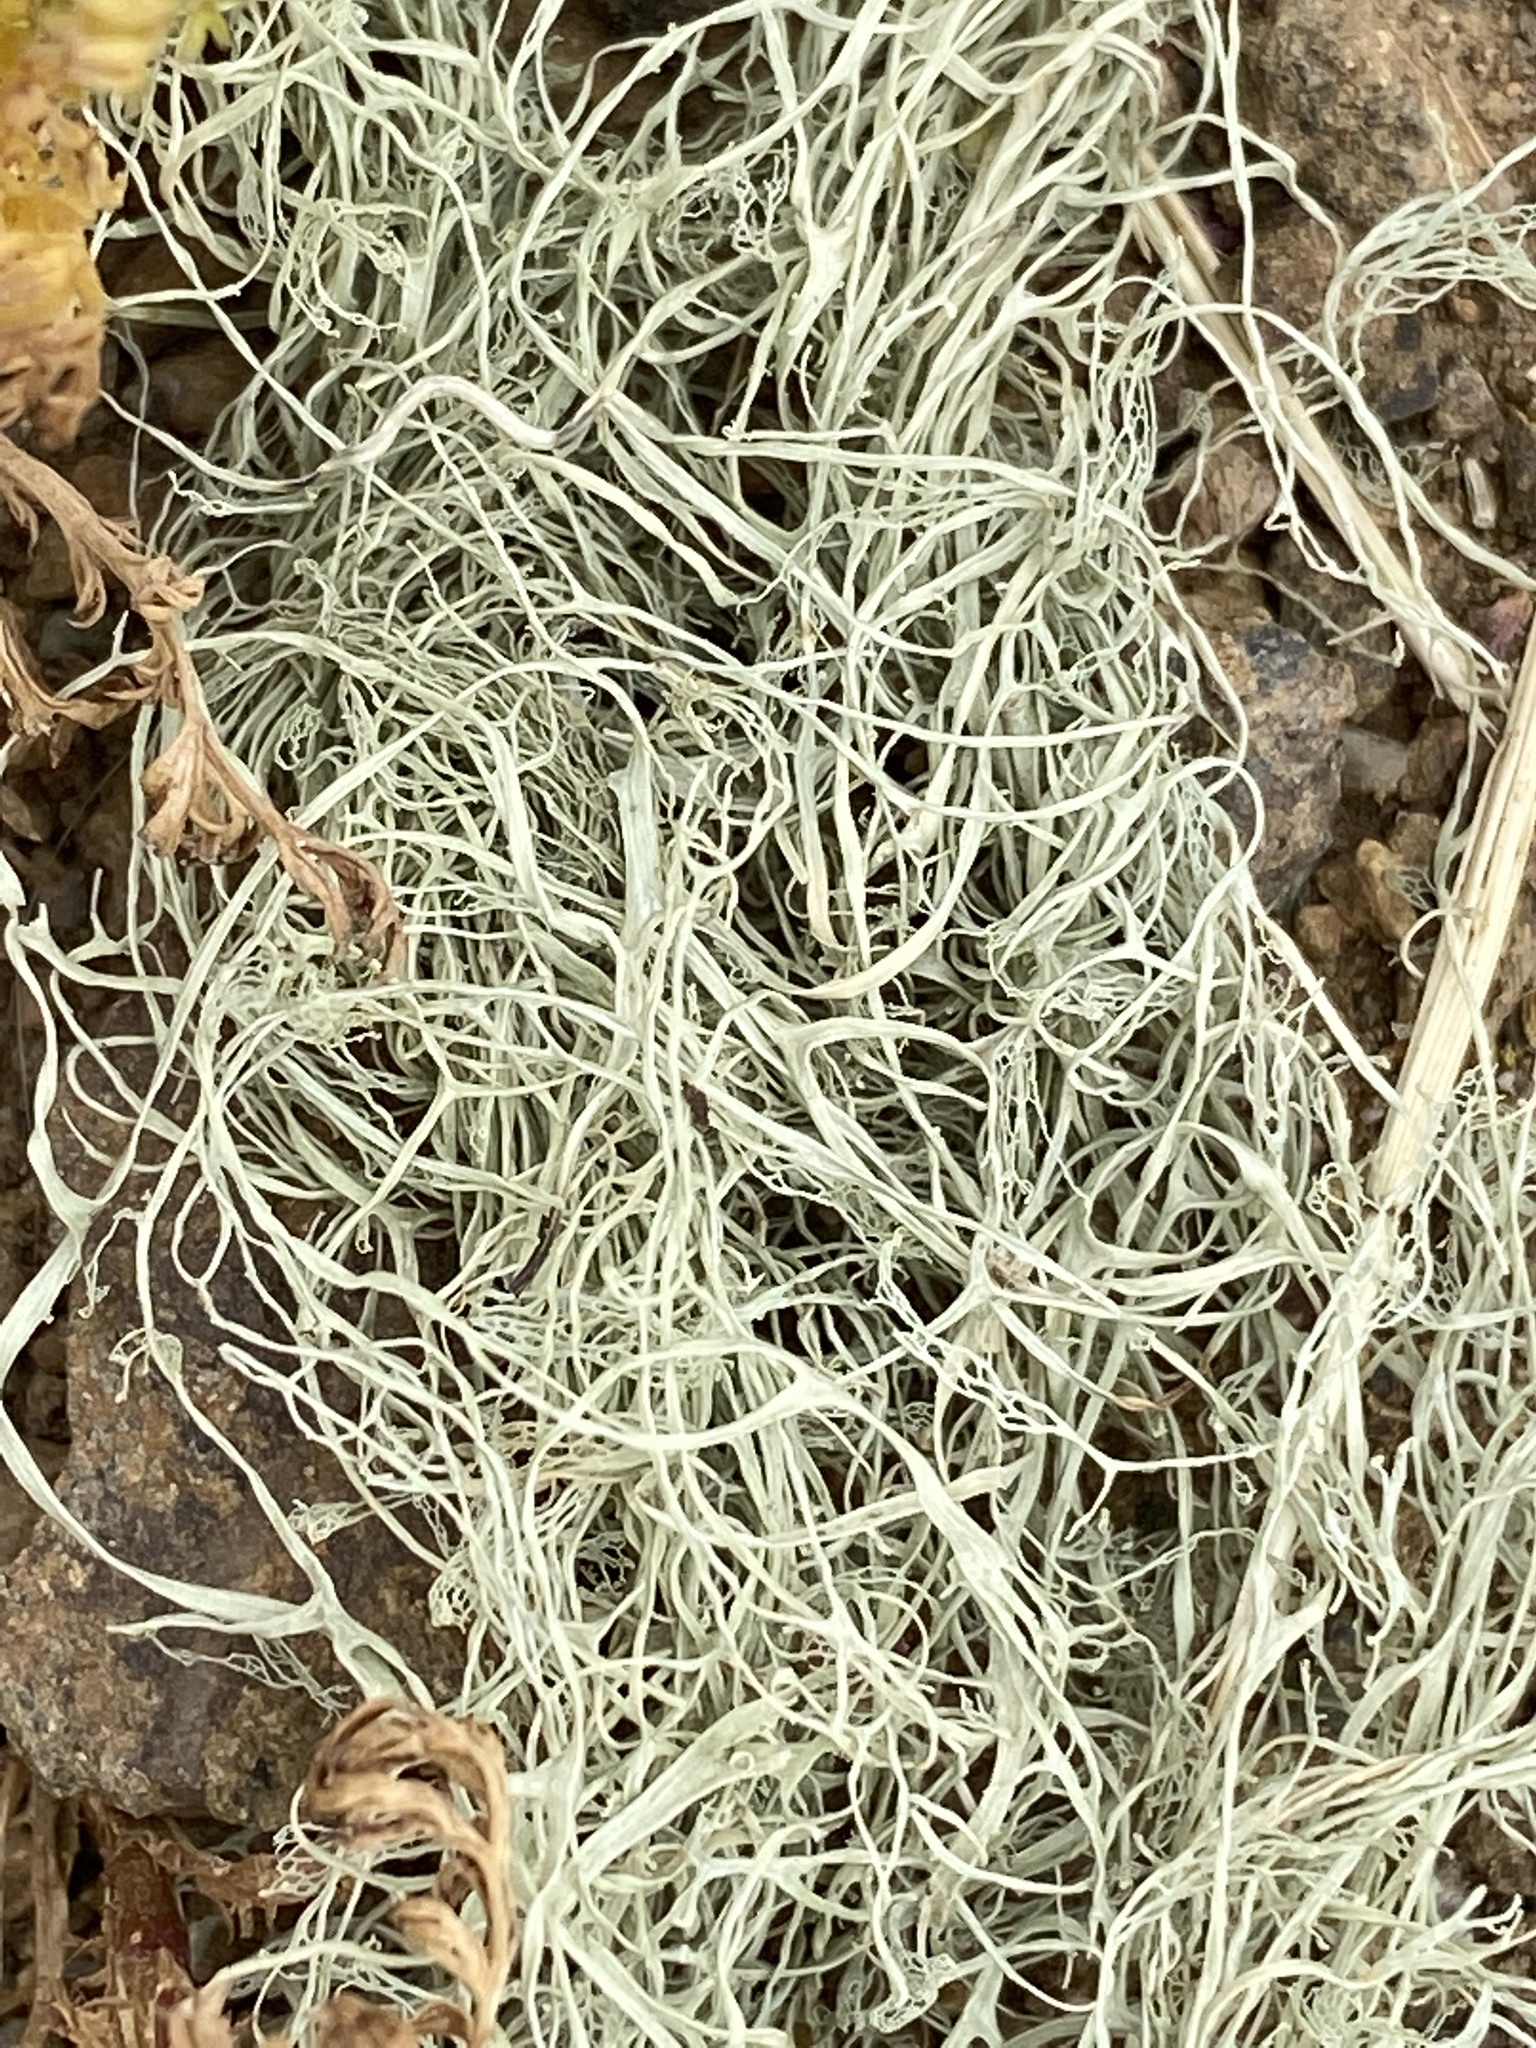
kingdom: Fungi
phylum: Ascomycota
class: Lecanoromycetes
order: Lecanorales
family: Ramalinaceae
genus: Ramalina
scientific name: Ramalina menziesii
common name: Lace lichen
